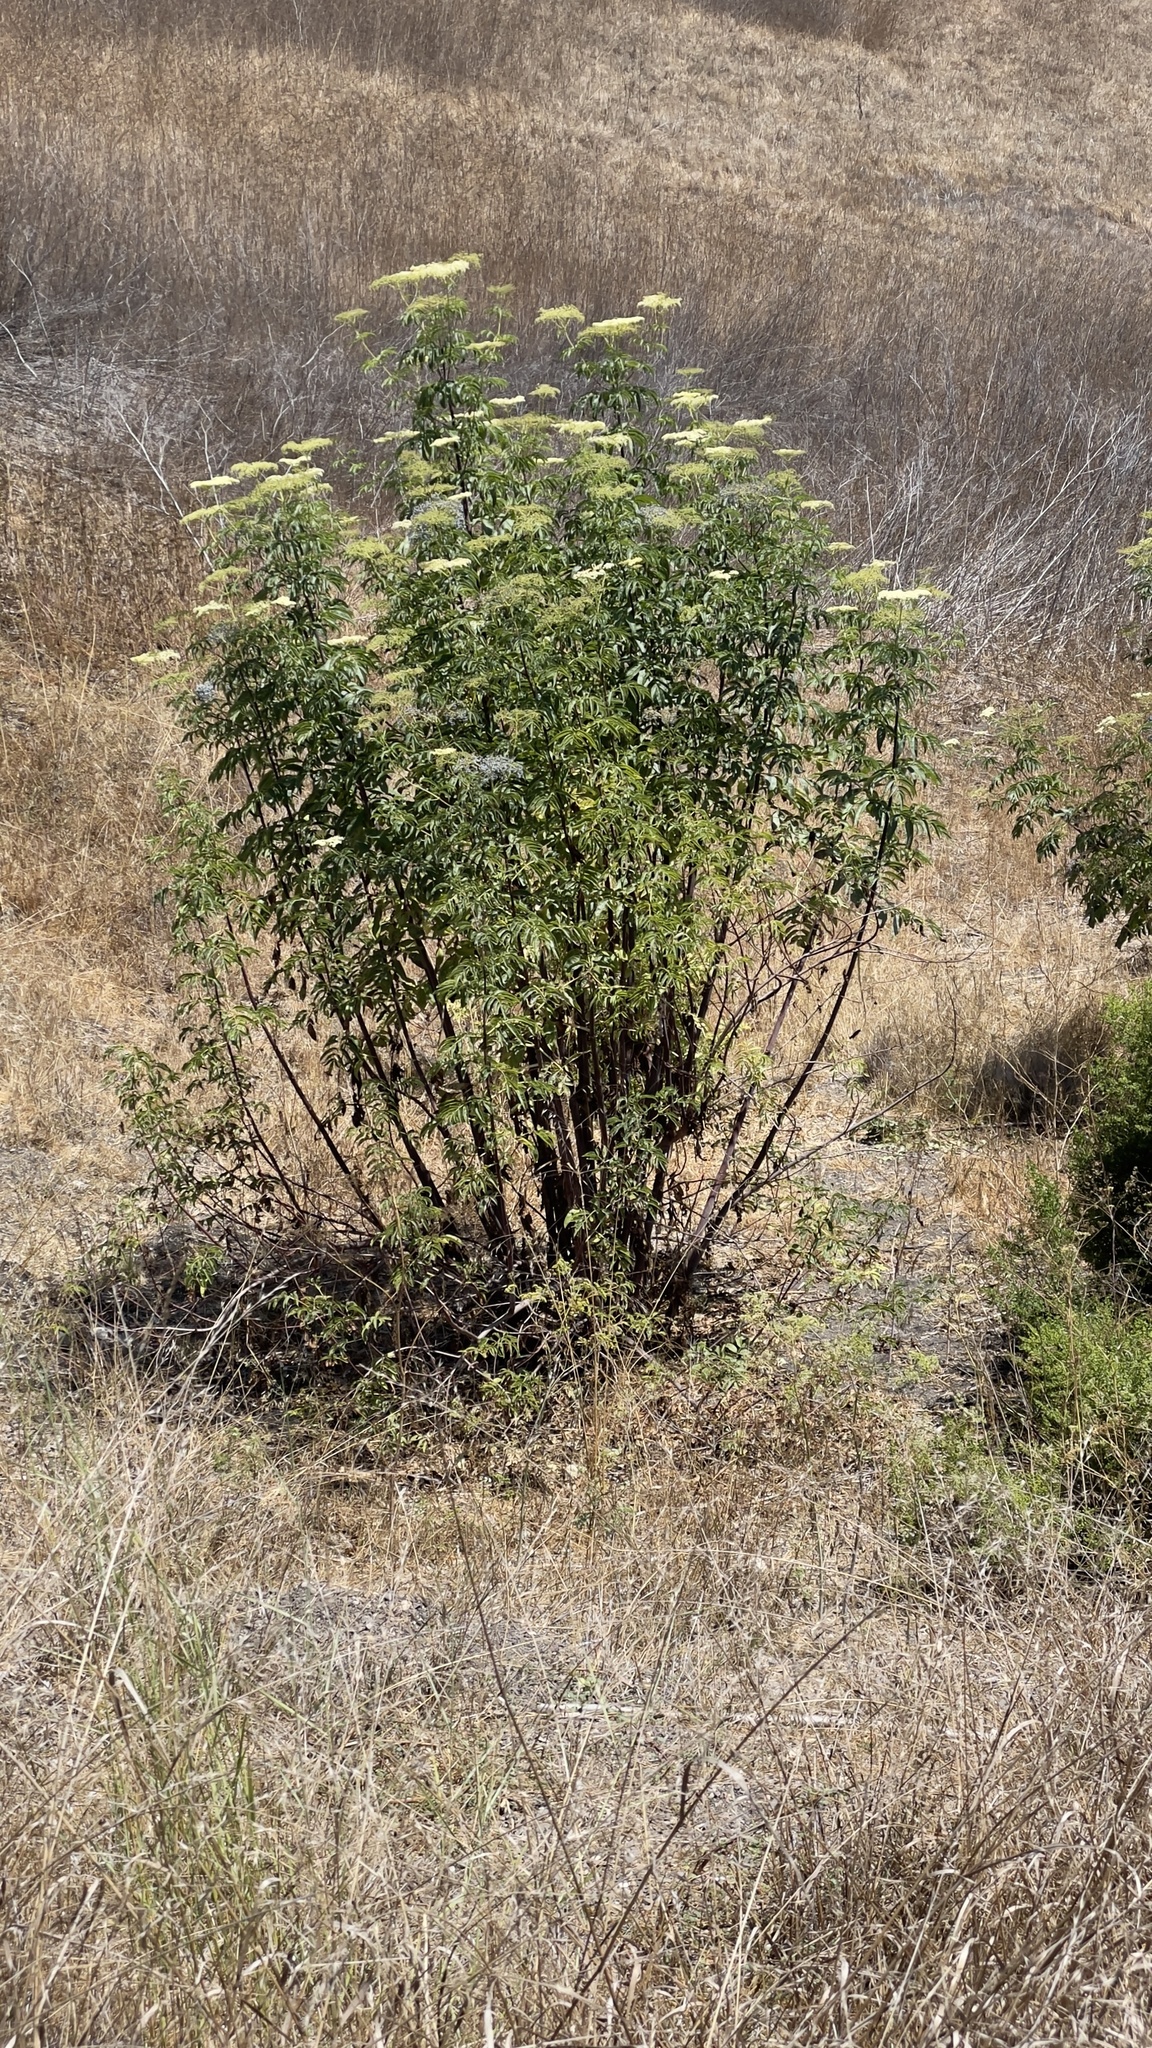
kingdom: Plantae
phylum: Tracheophyta
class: Magnoliopsida
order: Dipsacales
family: Viburnaceae
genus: Sambucus
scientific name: Sambucus cerulea
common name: Blue elder
